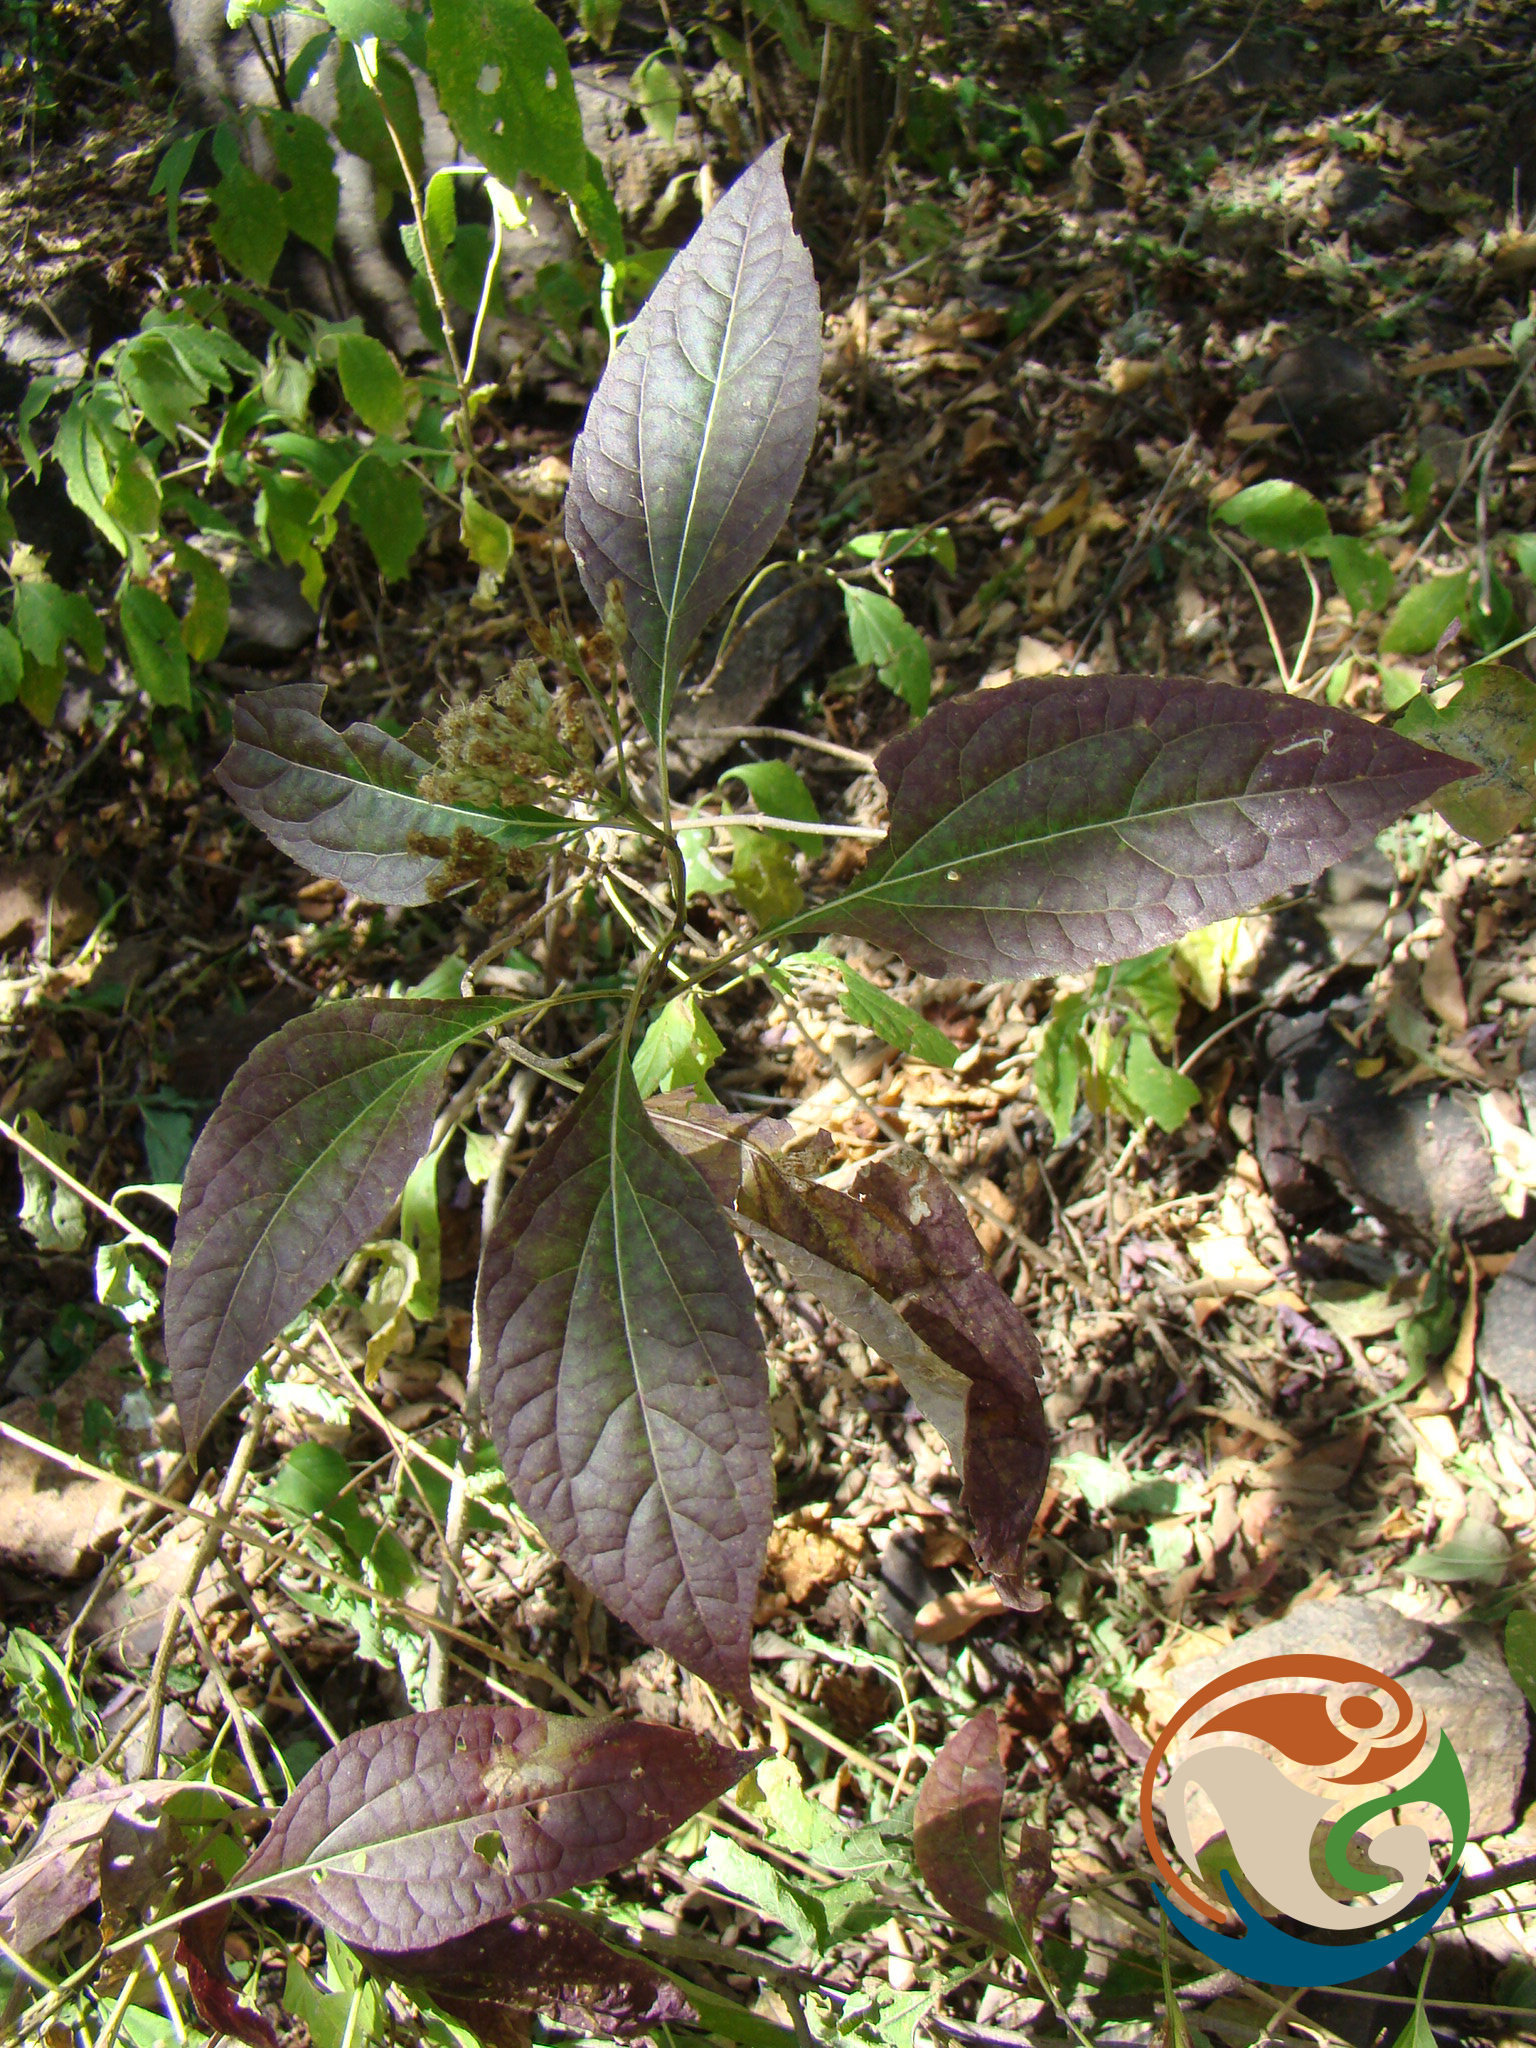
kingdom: Plantae
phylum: Tracheophyta
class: Magnoliopsida
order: Asterales
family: Asteraceae
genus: Chromolaena
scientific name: Chromolaena odorata
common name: Siamweed
